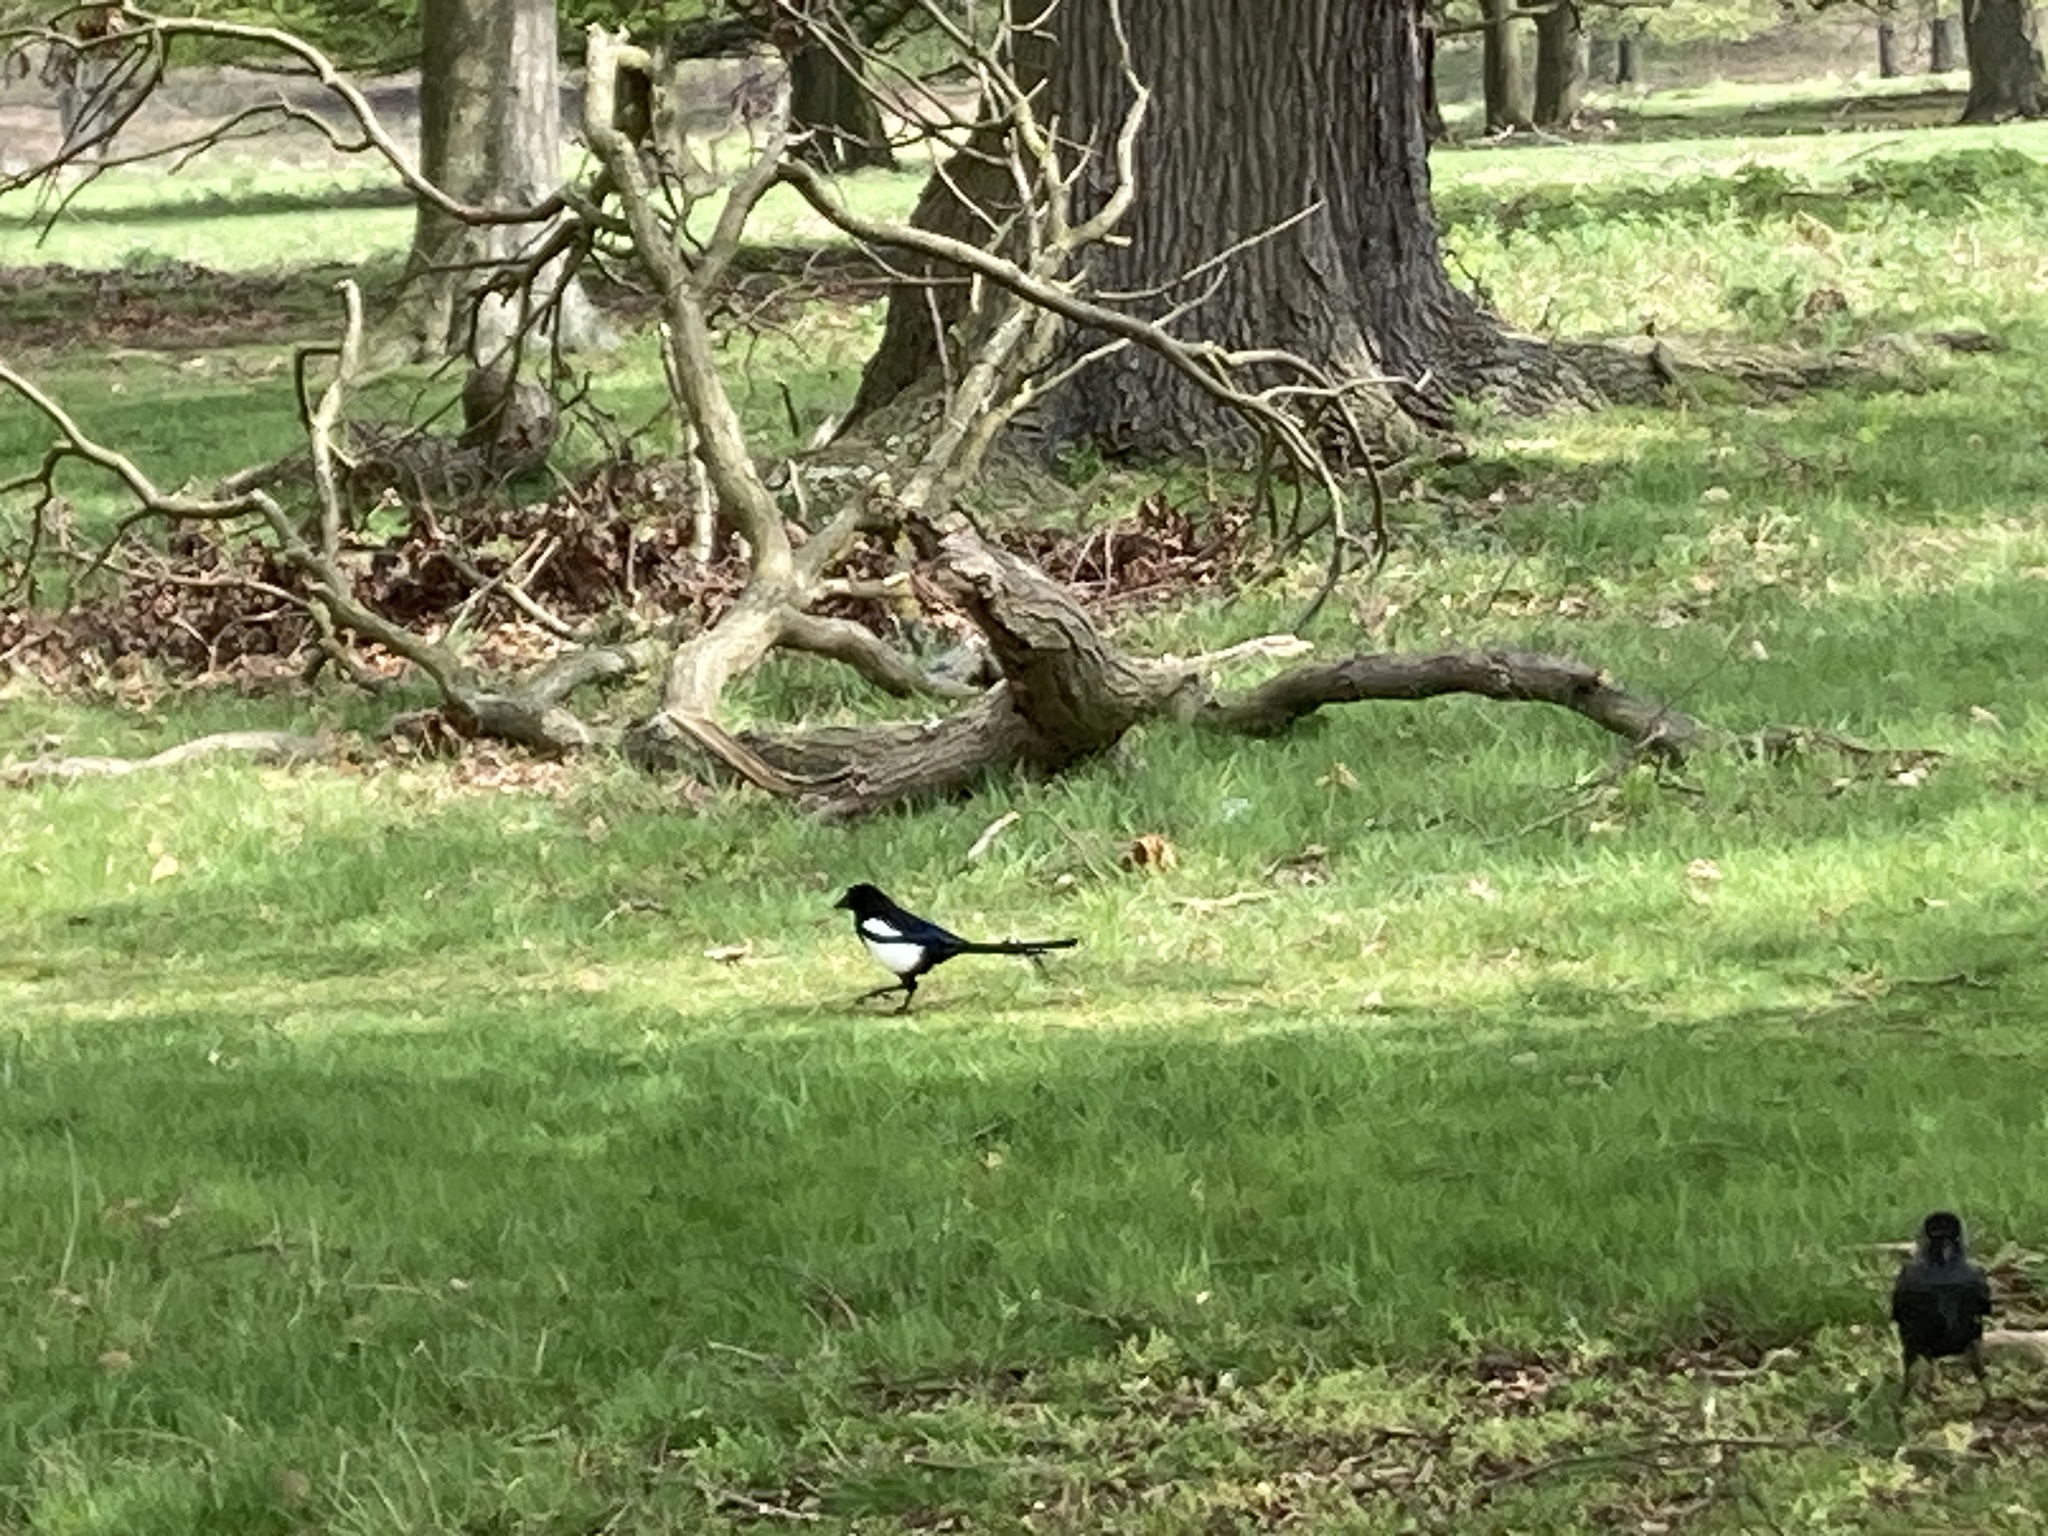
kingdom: Animalia
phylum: Chordata
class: Aves
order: Passeriformes
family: Corvidae
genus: Pica
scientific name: Pica pica
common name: Eurasian magpie
